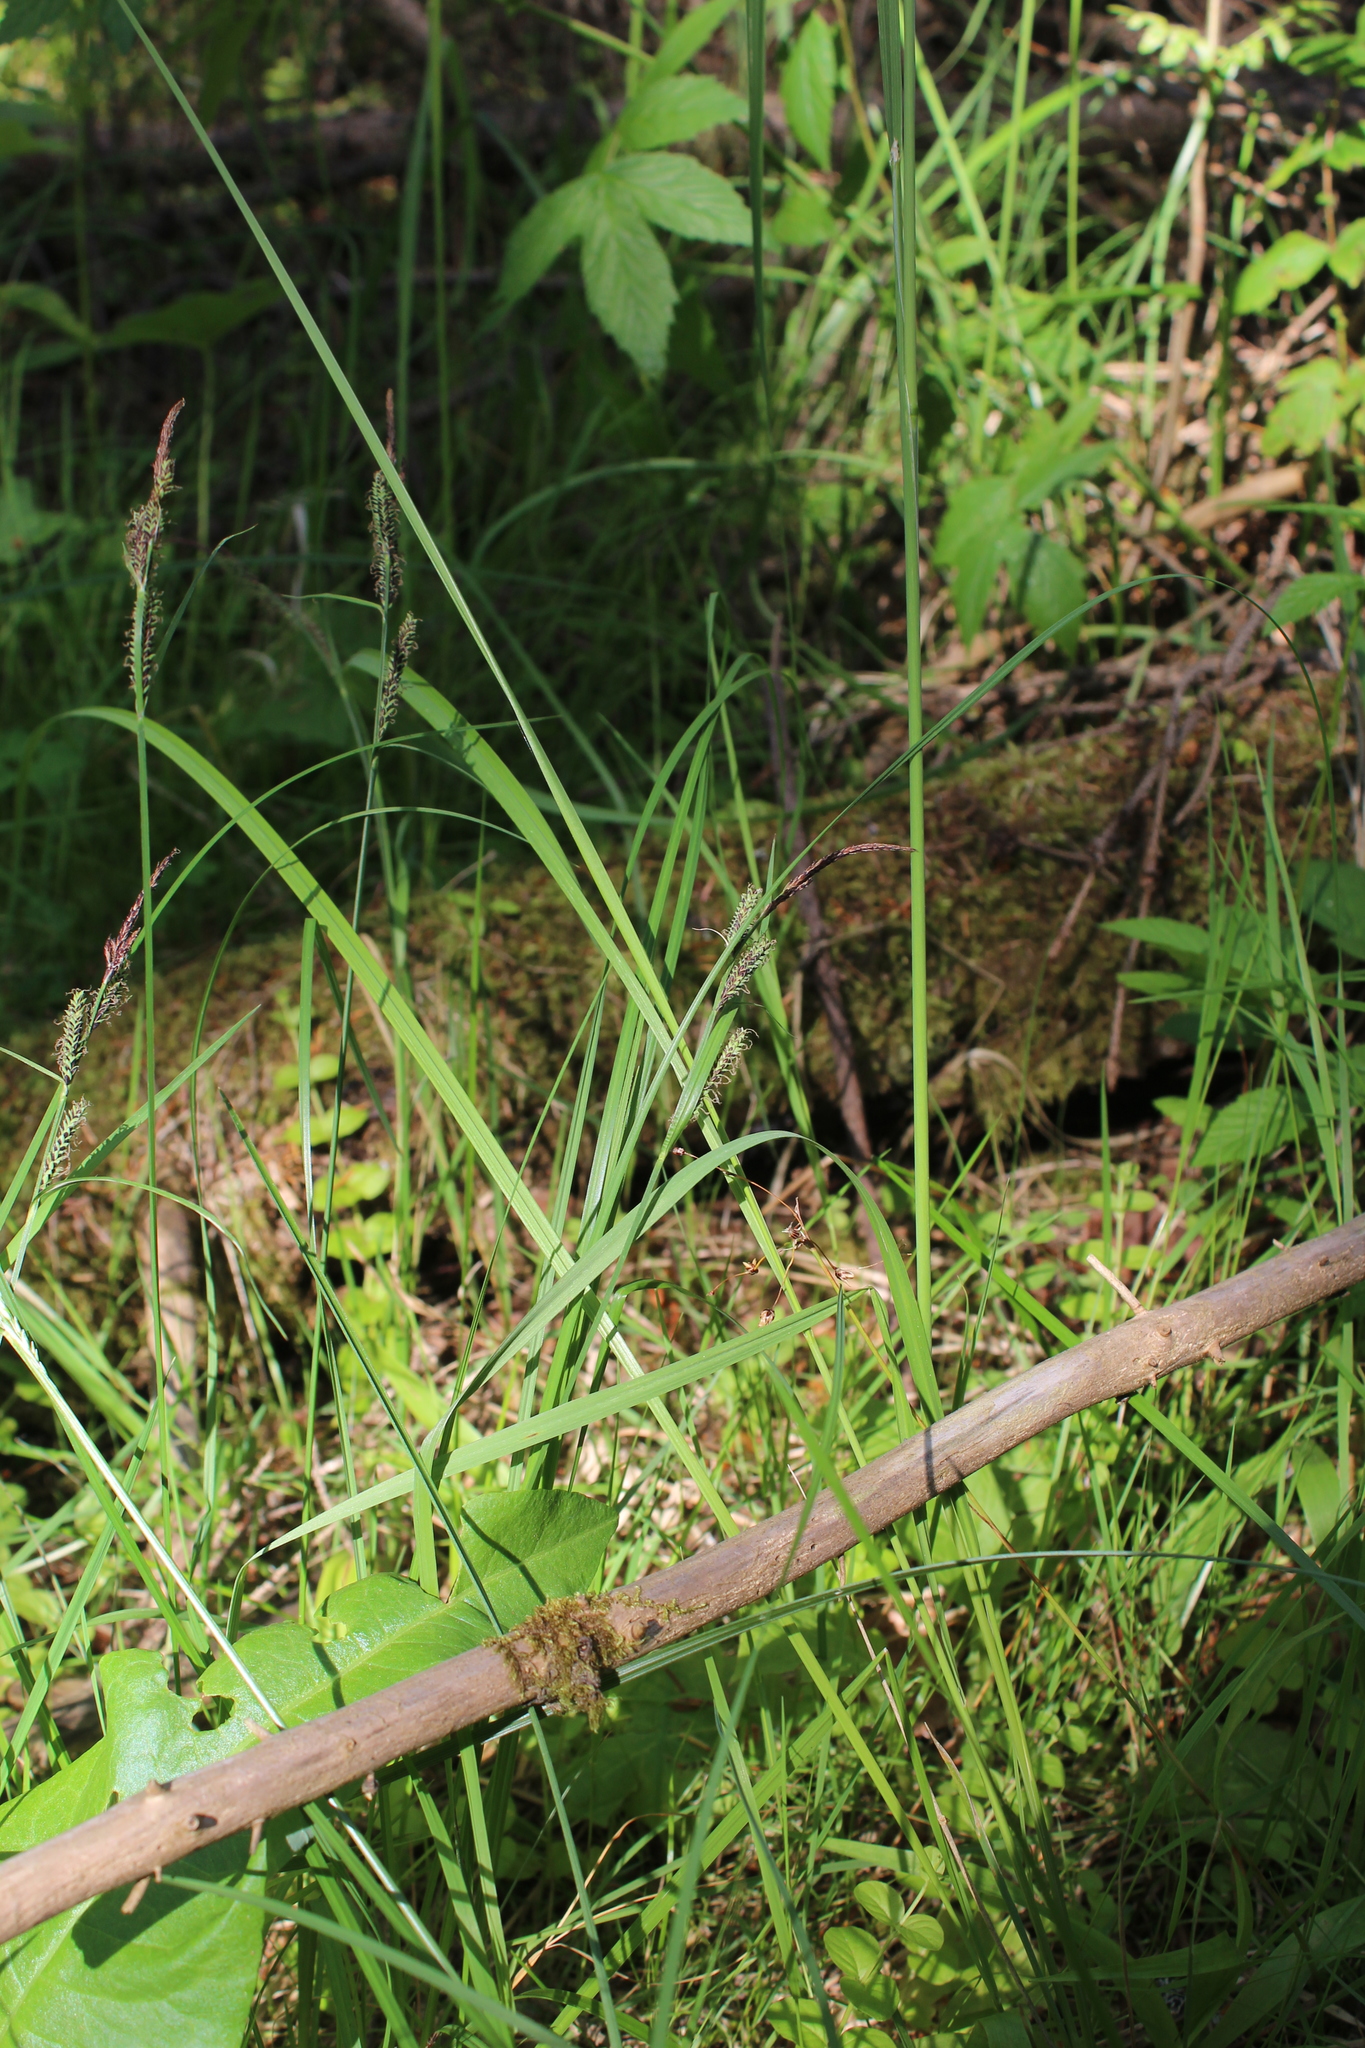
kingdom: Plantae
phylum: Tracheophyta
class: Liliopsida
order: Poales
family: Cyperaceae
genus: Carex
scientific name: Carex nigra
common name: Common sedge
